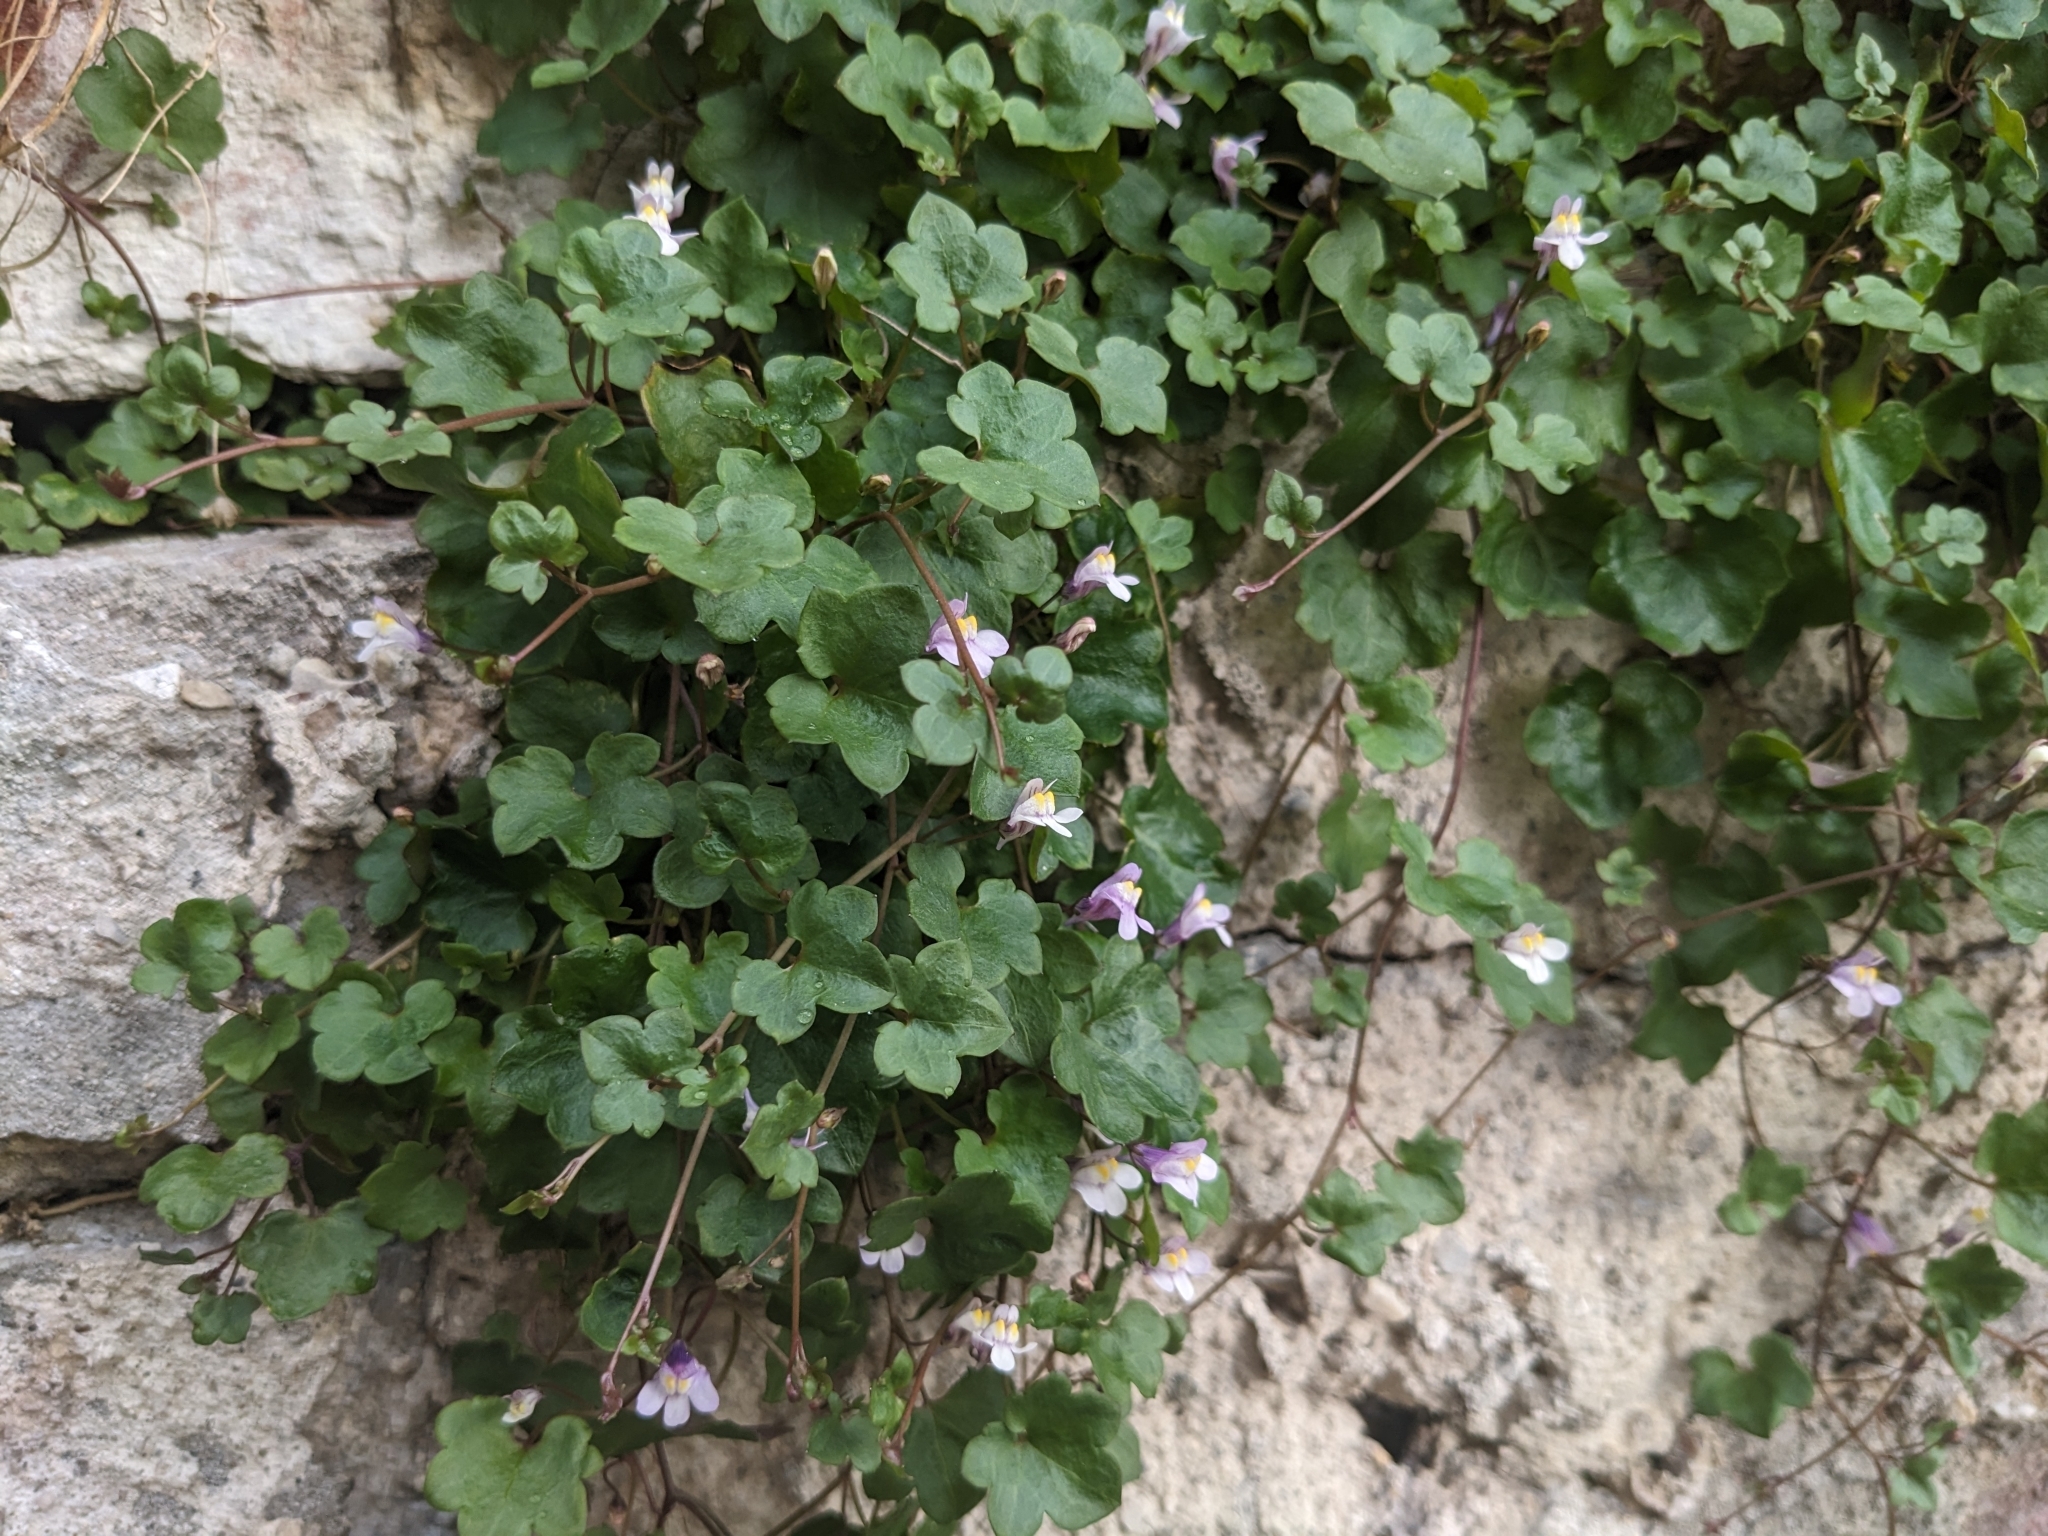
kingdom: Plantae
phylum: Tracheophyta
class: Magnoliopsida
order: Lamiales
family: Plantaginaceae
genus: Cymbalaria
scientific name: Cymbalaria muralis
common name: Ivy-leaved toadflax
